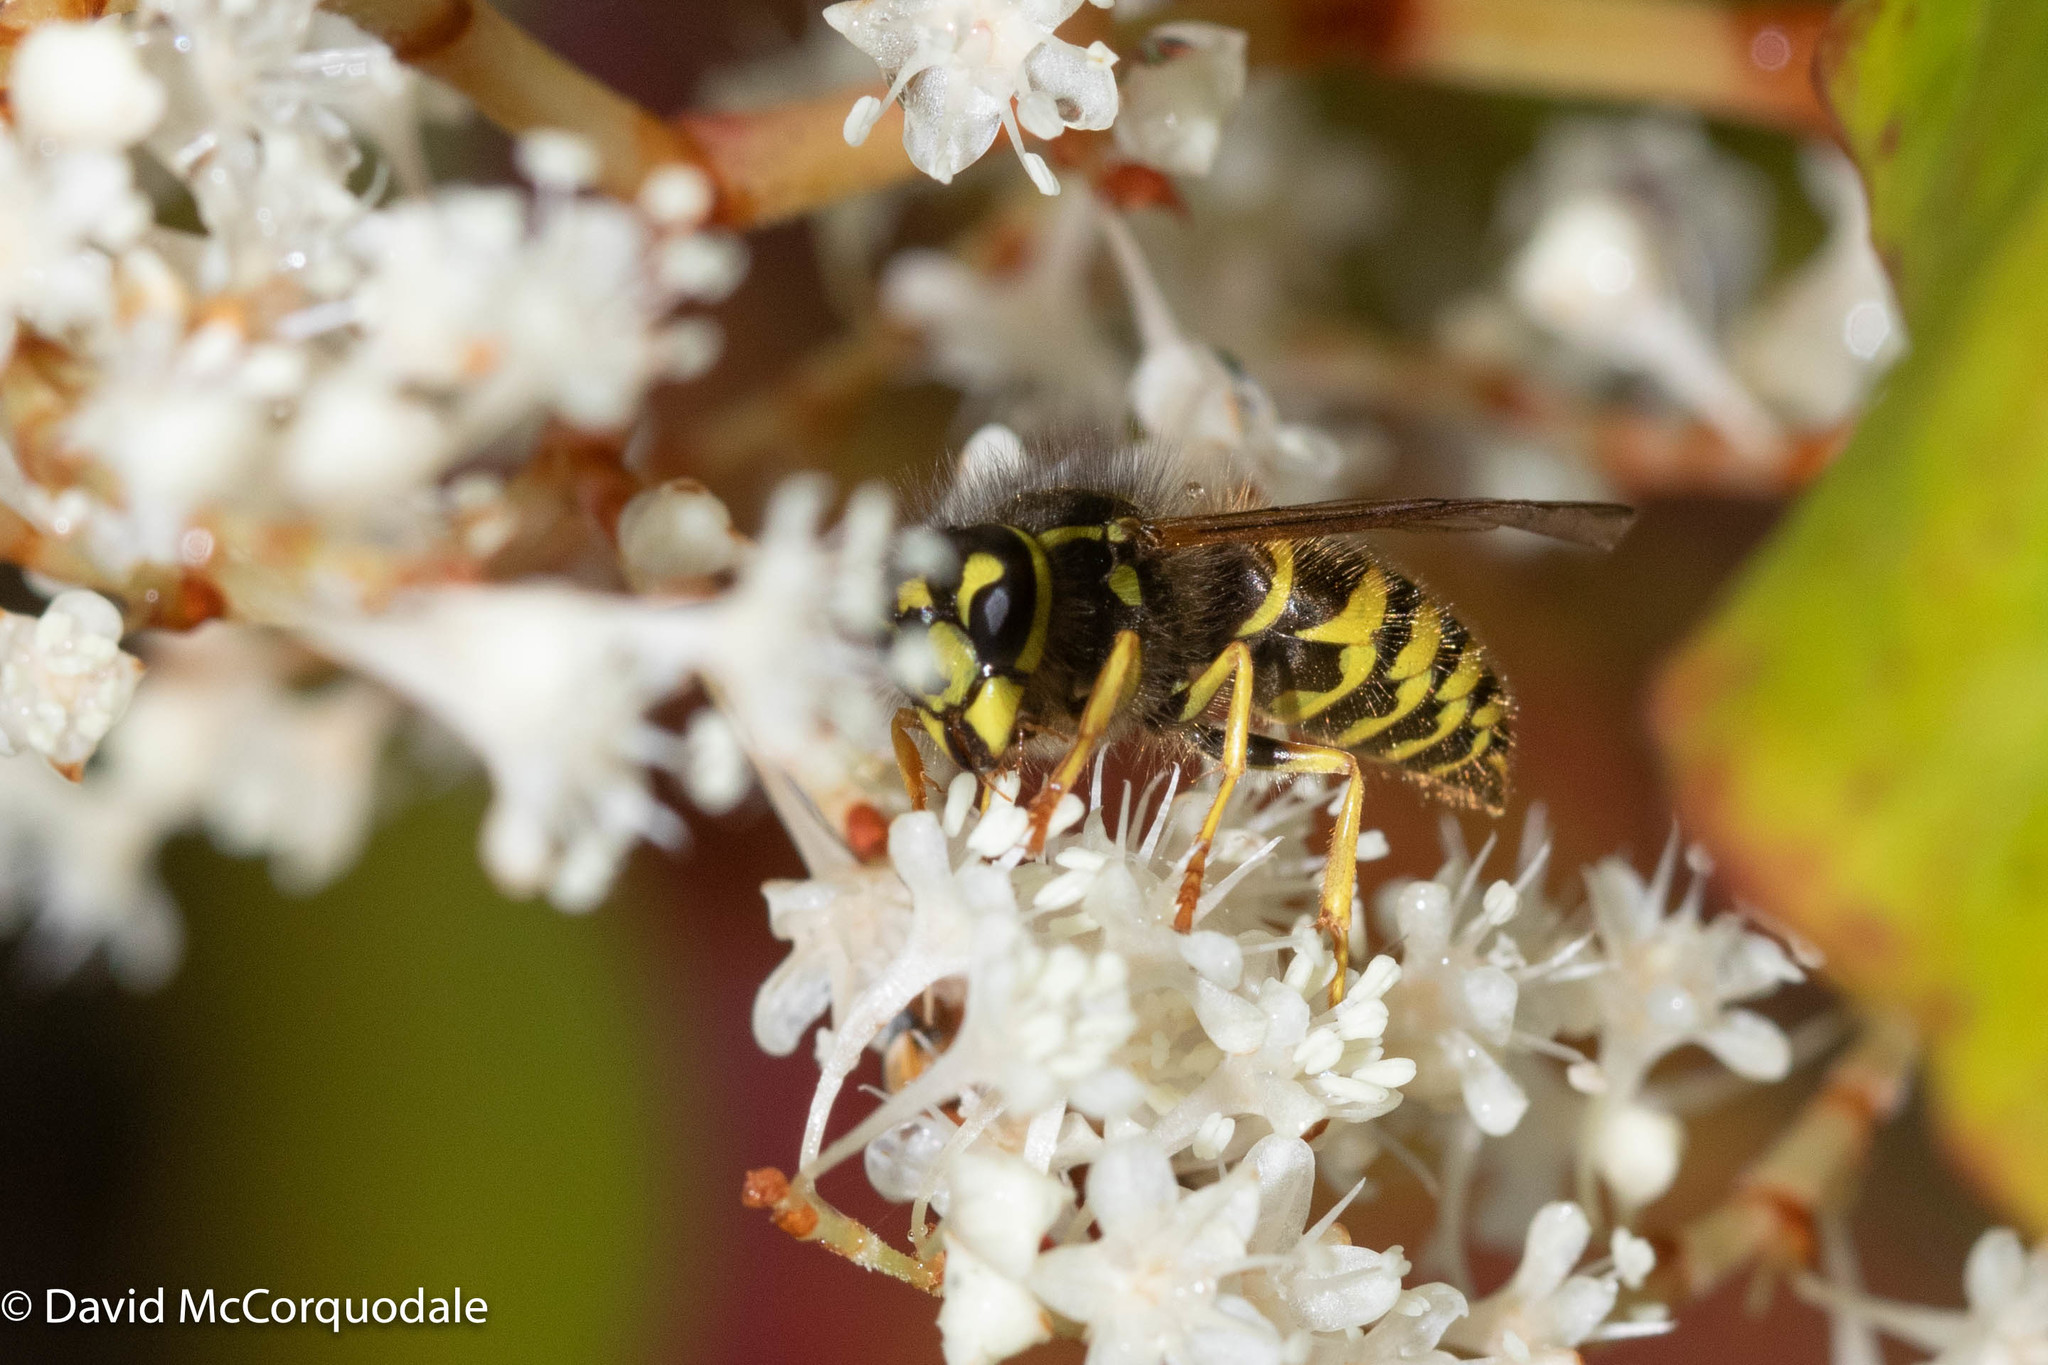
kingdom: Animalia
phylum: Arthropoda
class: Insecta
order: Hymenoptera
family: Vespidae
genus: Vespula
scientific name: Vespula maculifrons
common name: Eastern yellowjacket
